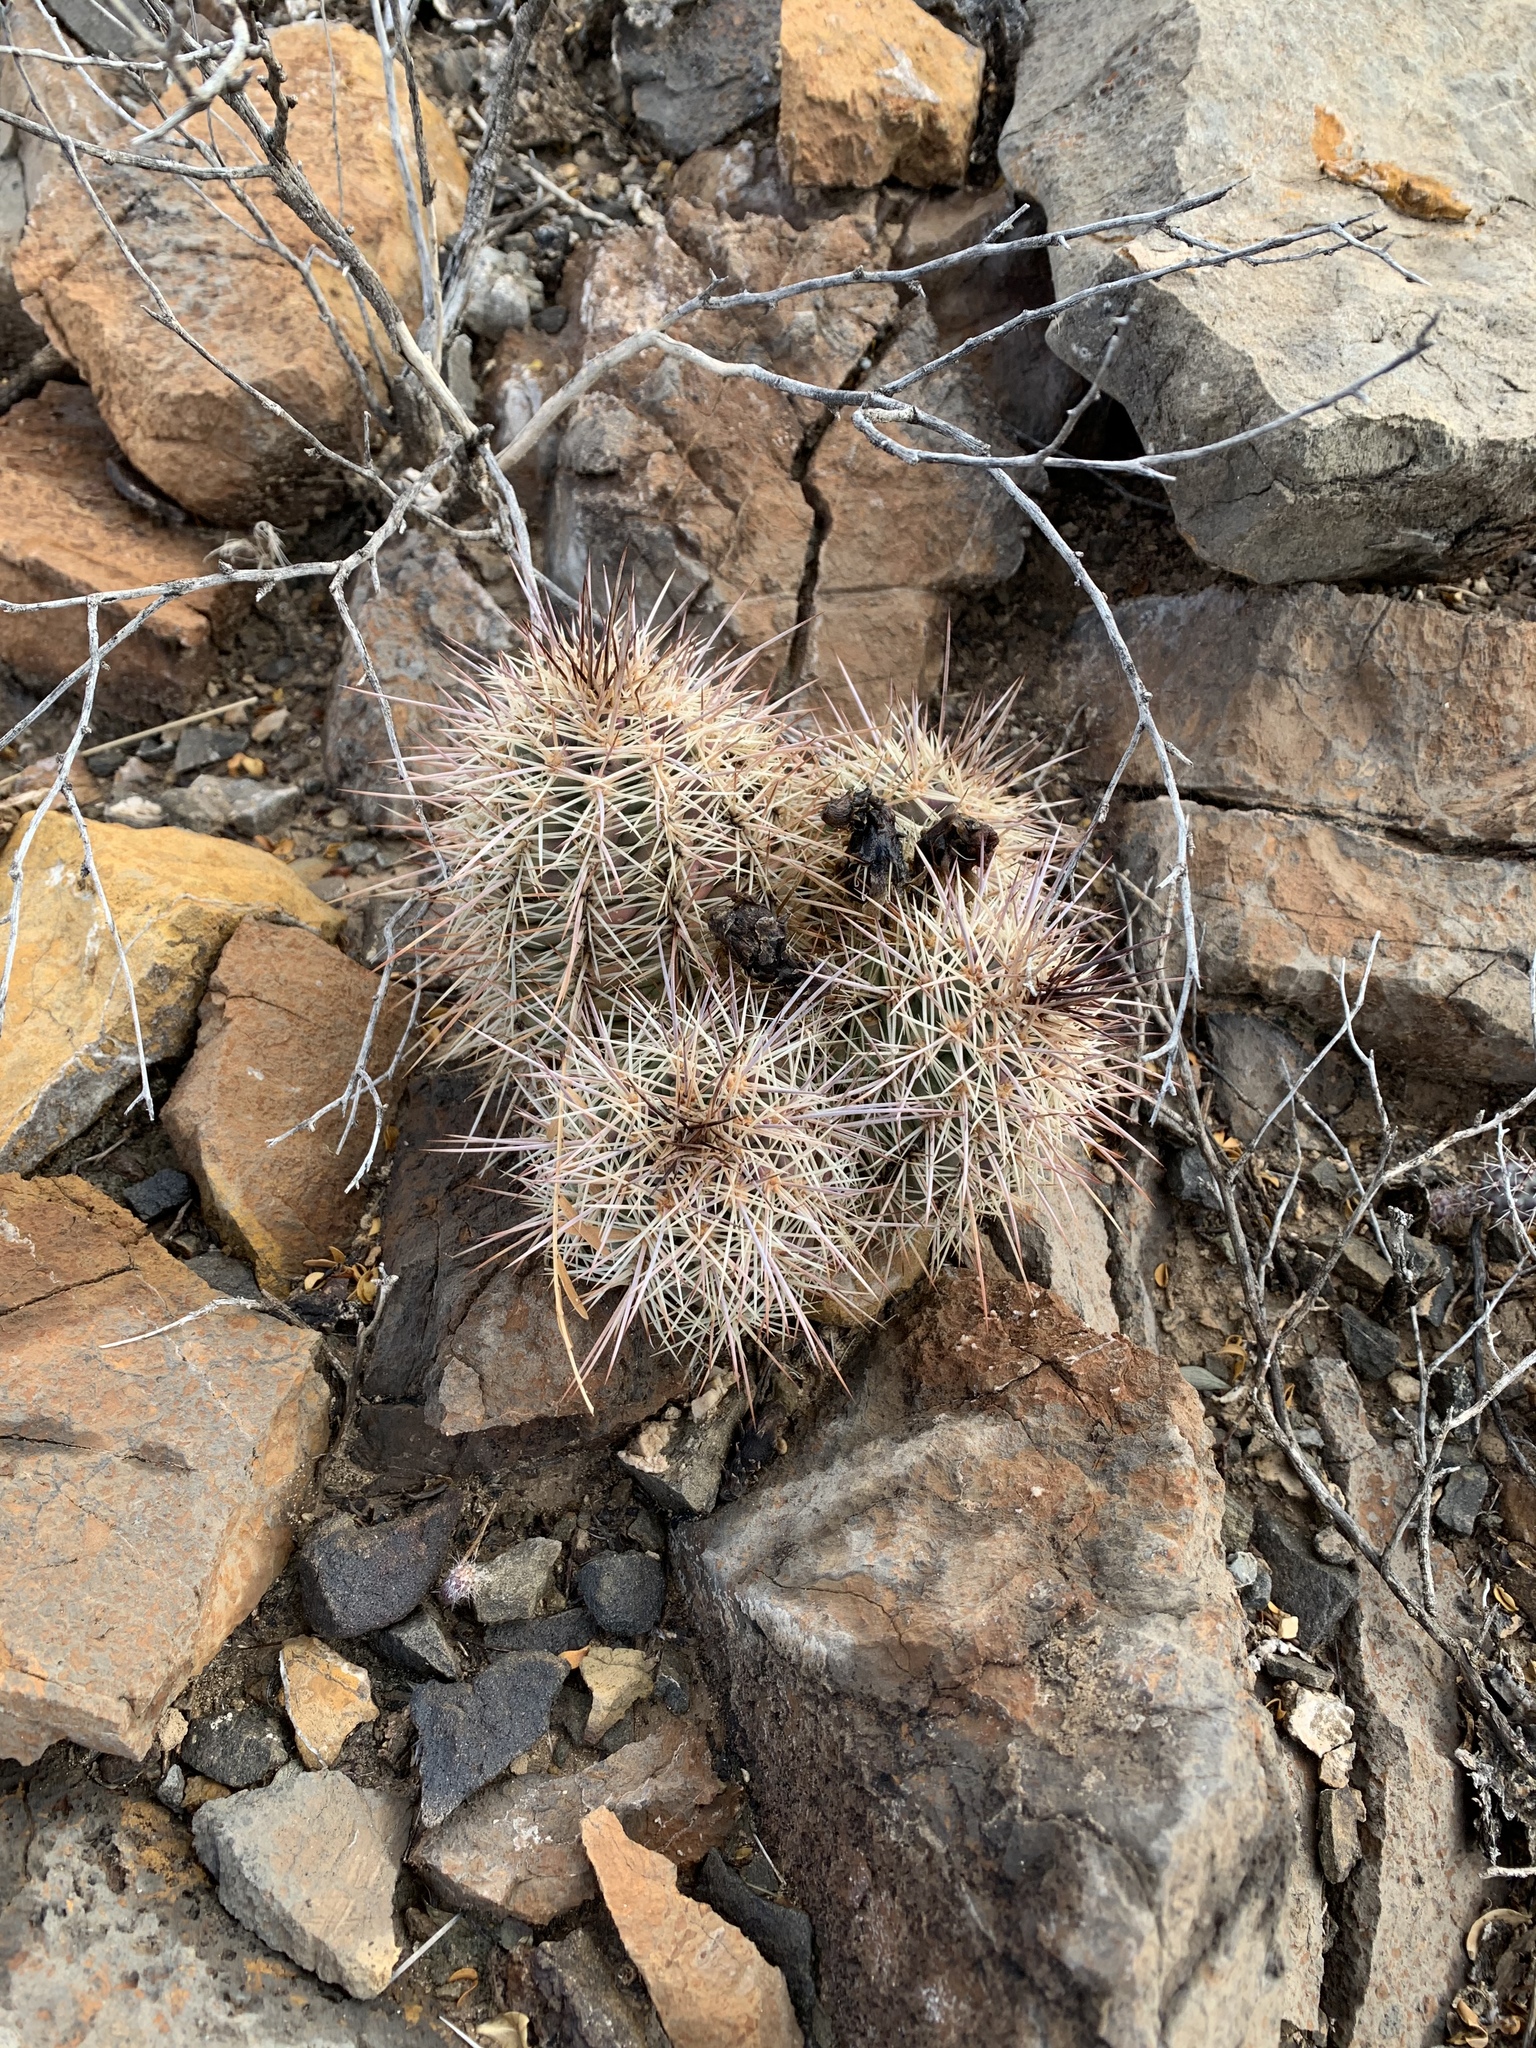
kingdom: Plantae
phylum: Tracheophyta
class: Magnoliopsida
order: Caryophyllales
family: Cactaceae
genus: Echinocereus
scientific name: Echinocereus coccineus
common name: Scarlet hedgehog cactus
